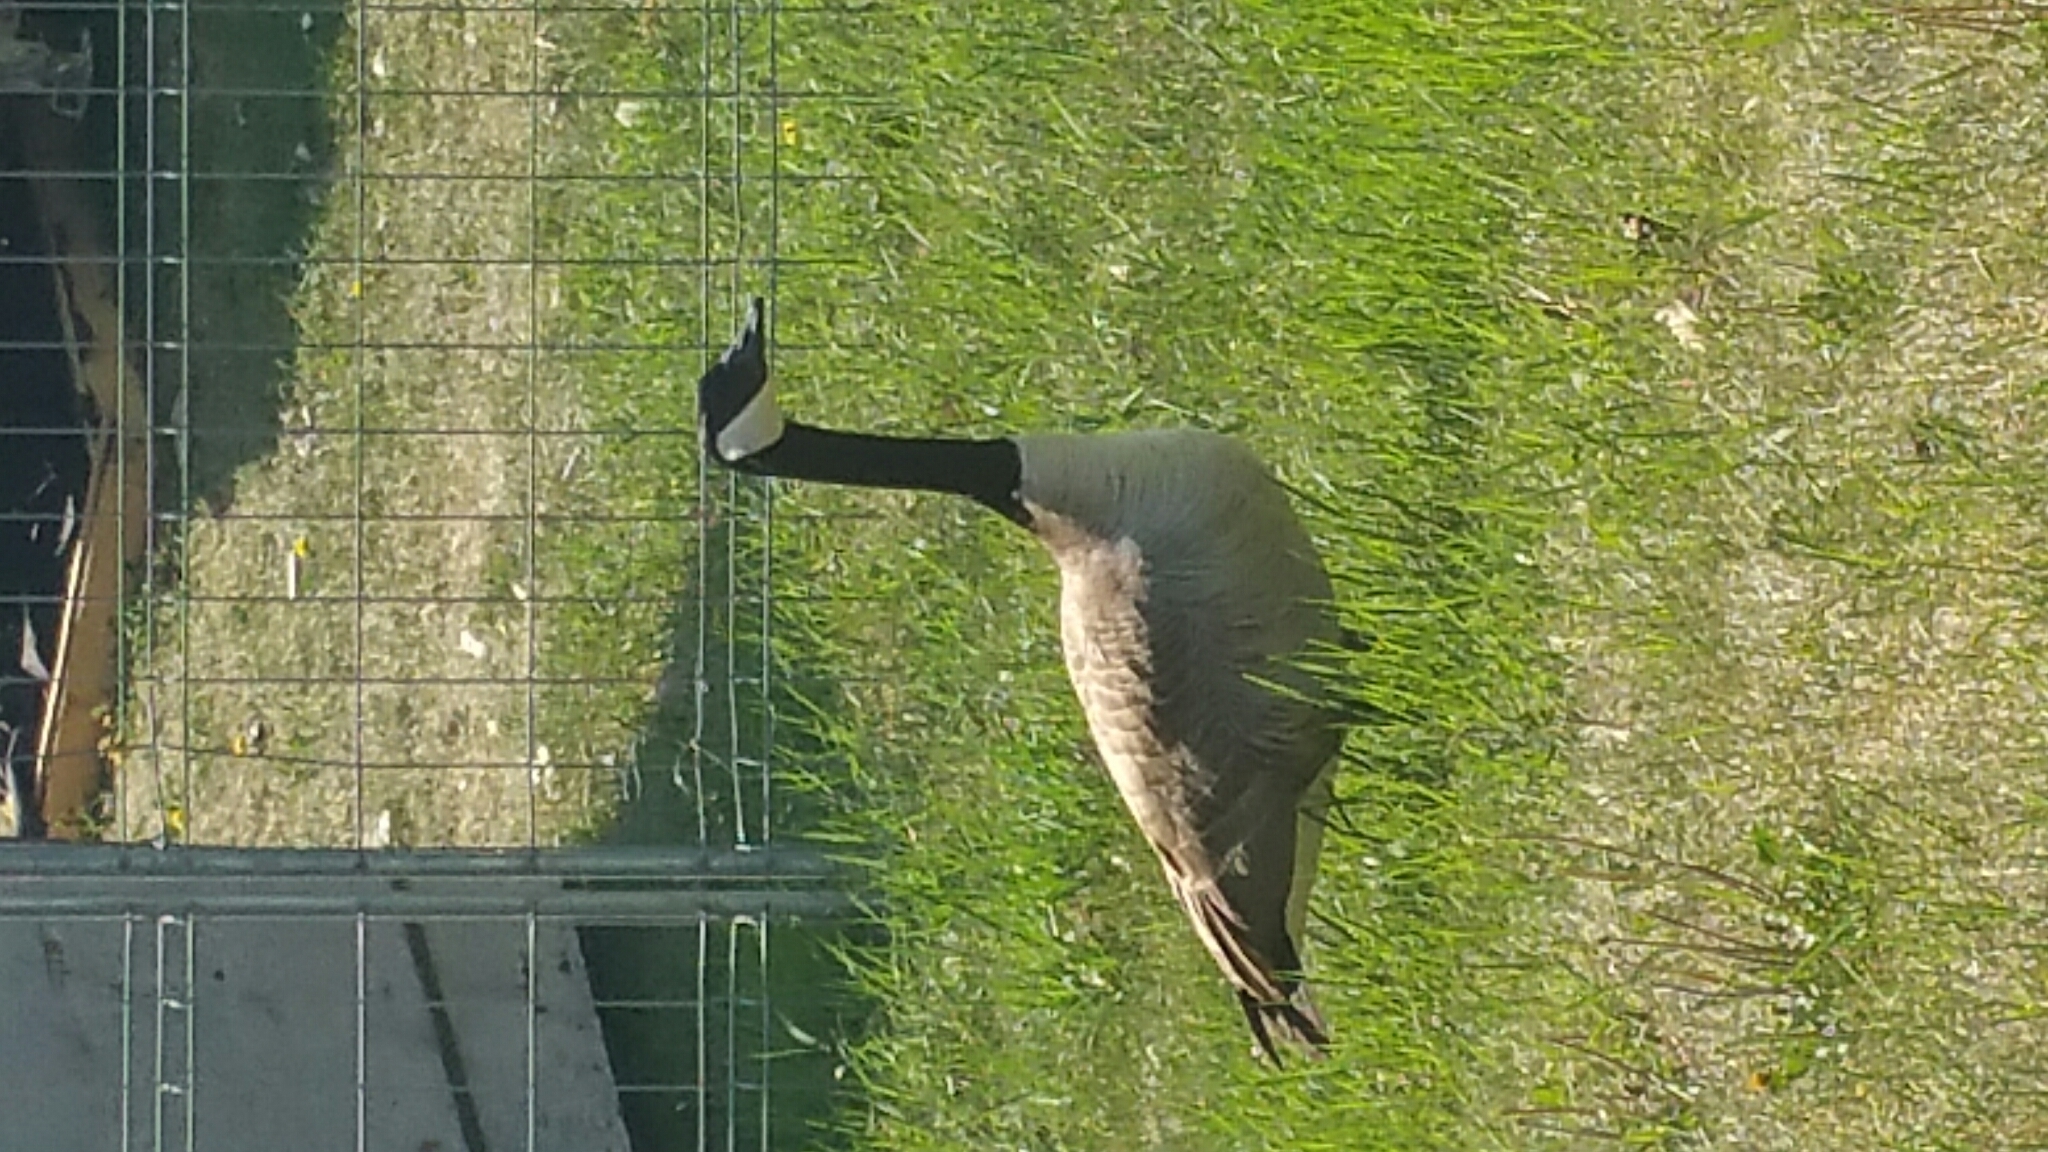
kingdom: Animalia
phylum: Chordata
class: Aves
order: Anseriformes
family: Anatidae
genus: Branta
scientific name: Branta canadensis
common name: Canada goose
